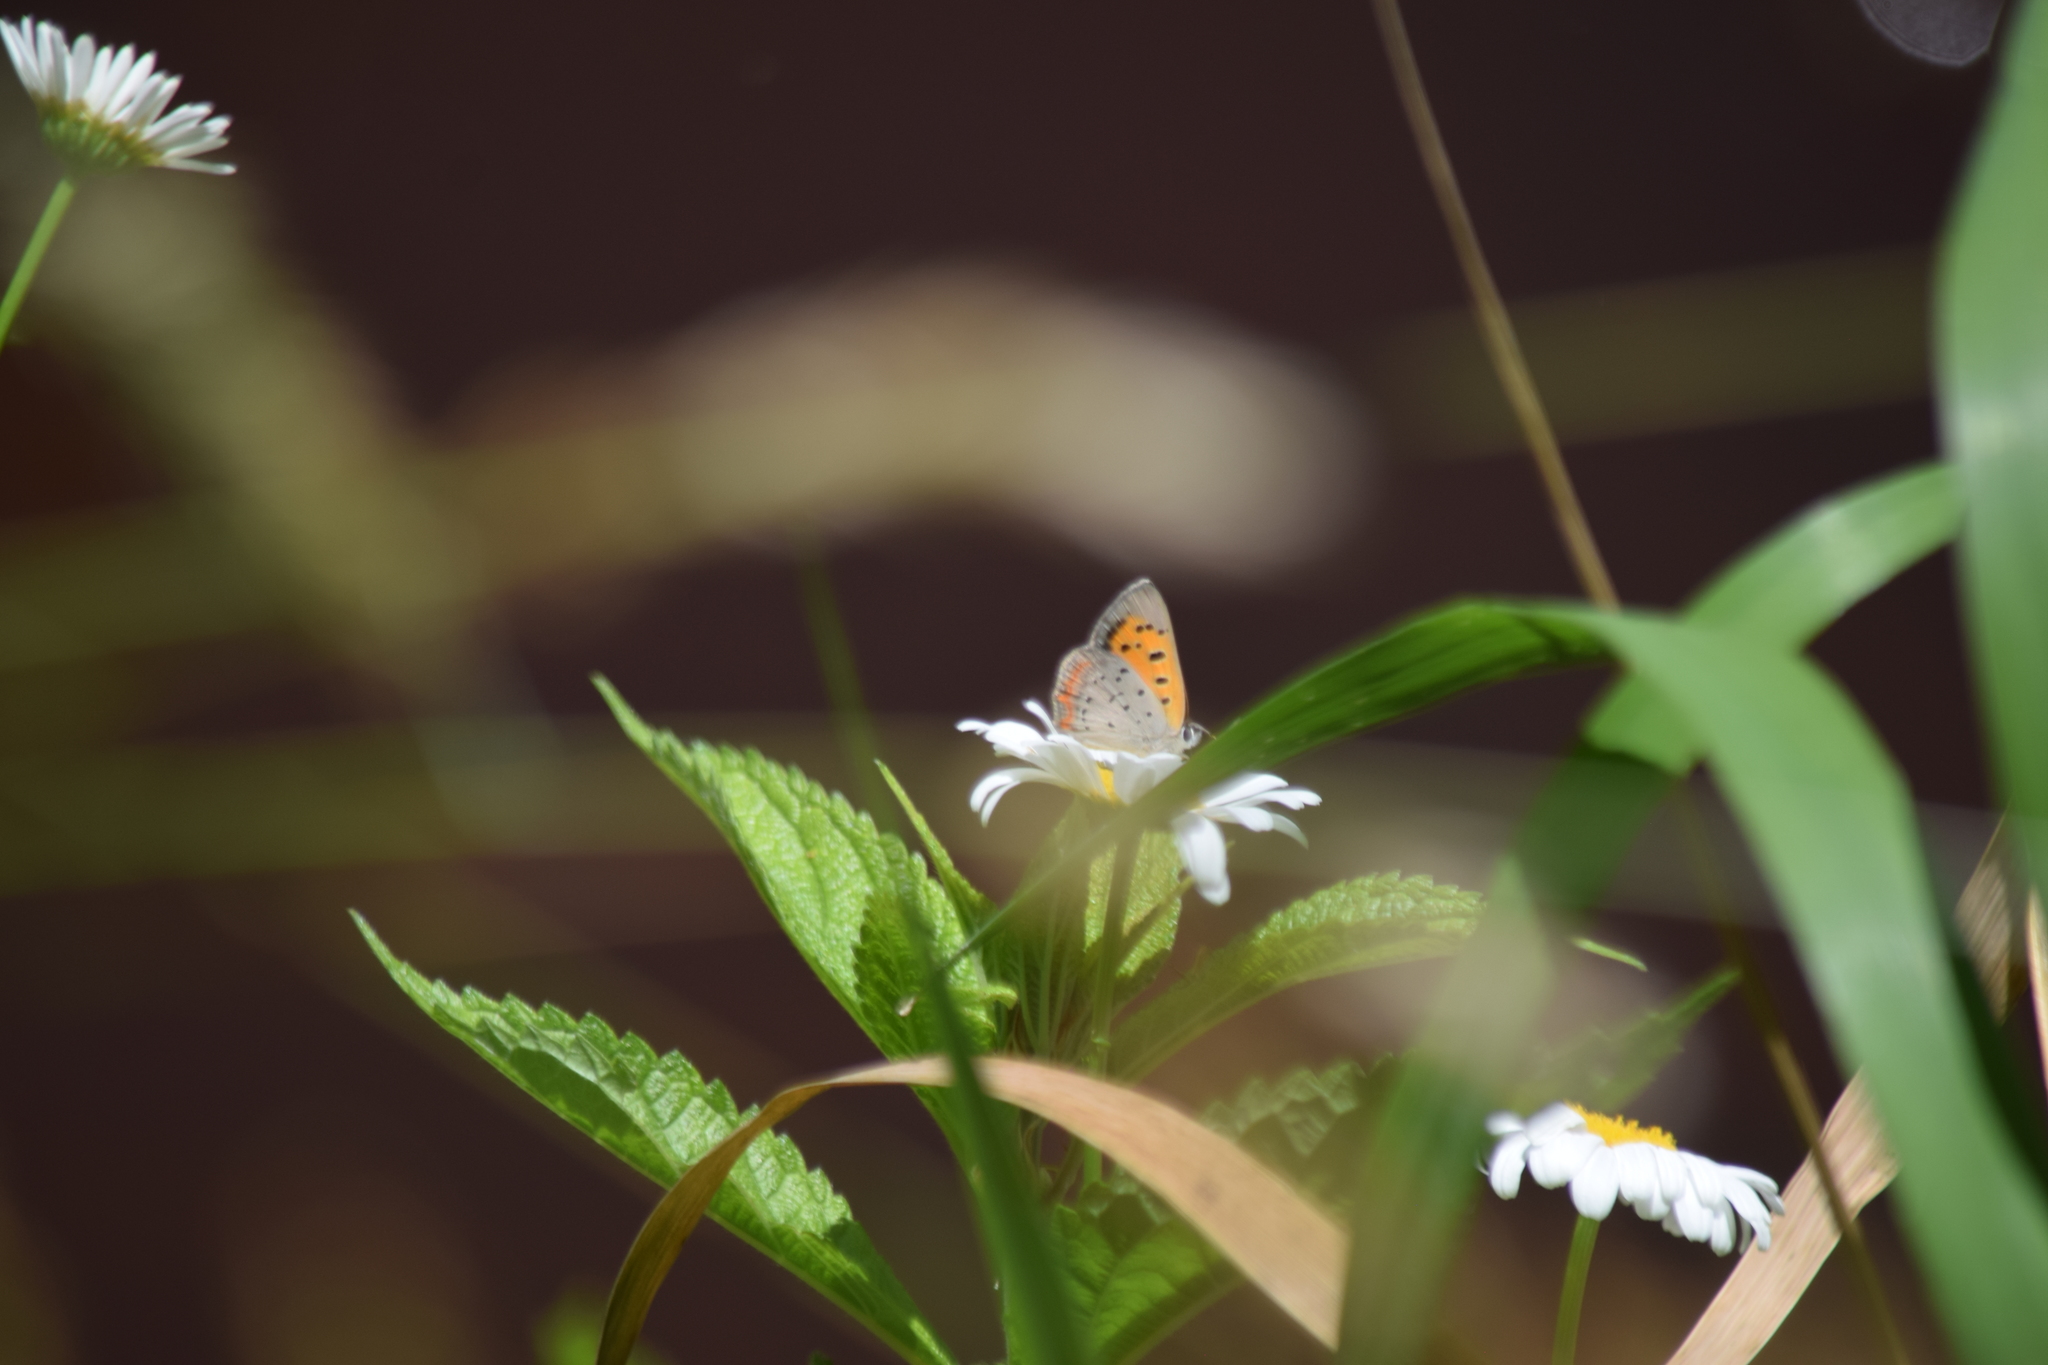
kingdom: Animalia
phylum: Arthropoda
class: Insecta
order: Lepidoptera
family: Lycaenidae
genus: Lycaena
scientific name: Lycaena hypophlaeas
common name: American copper
